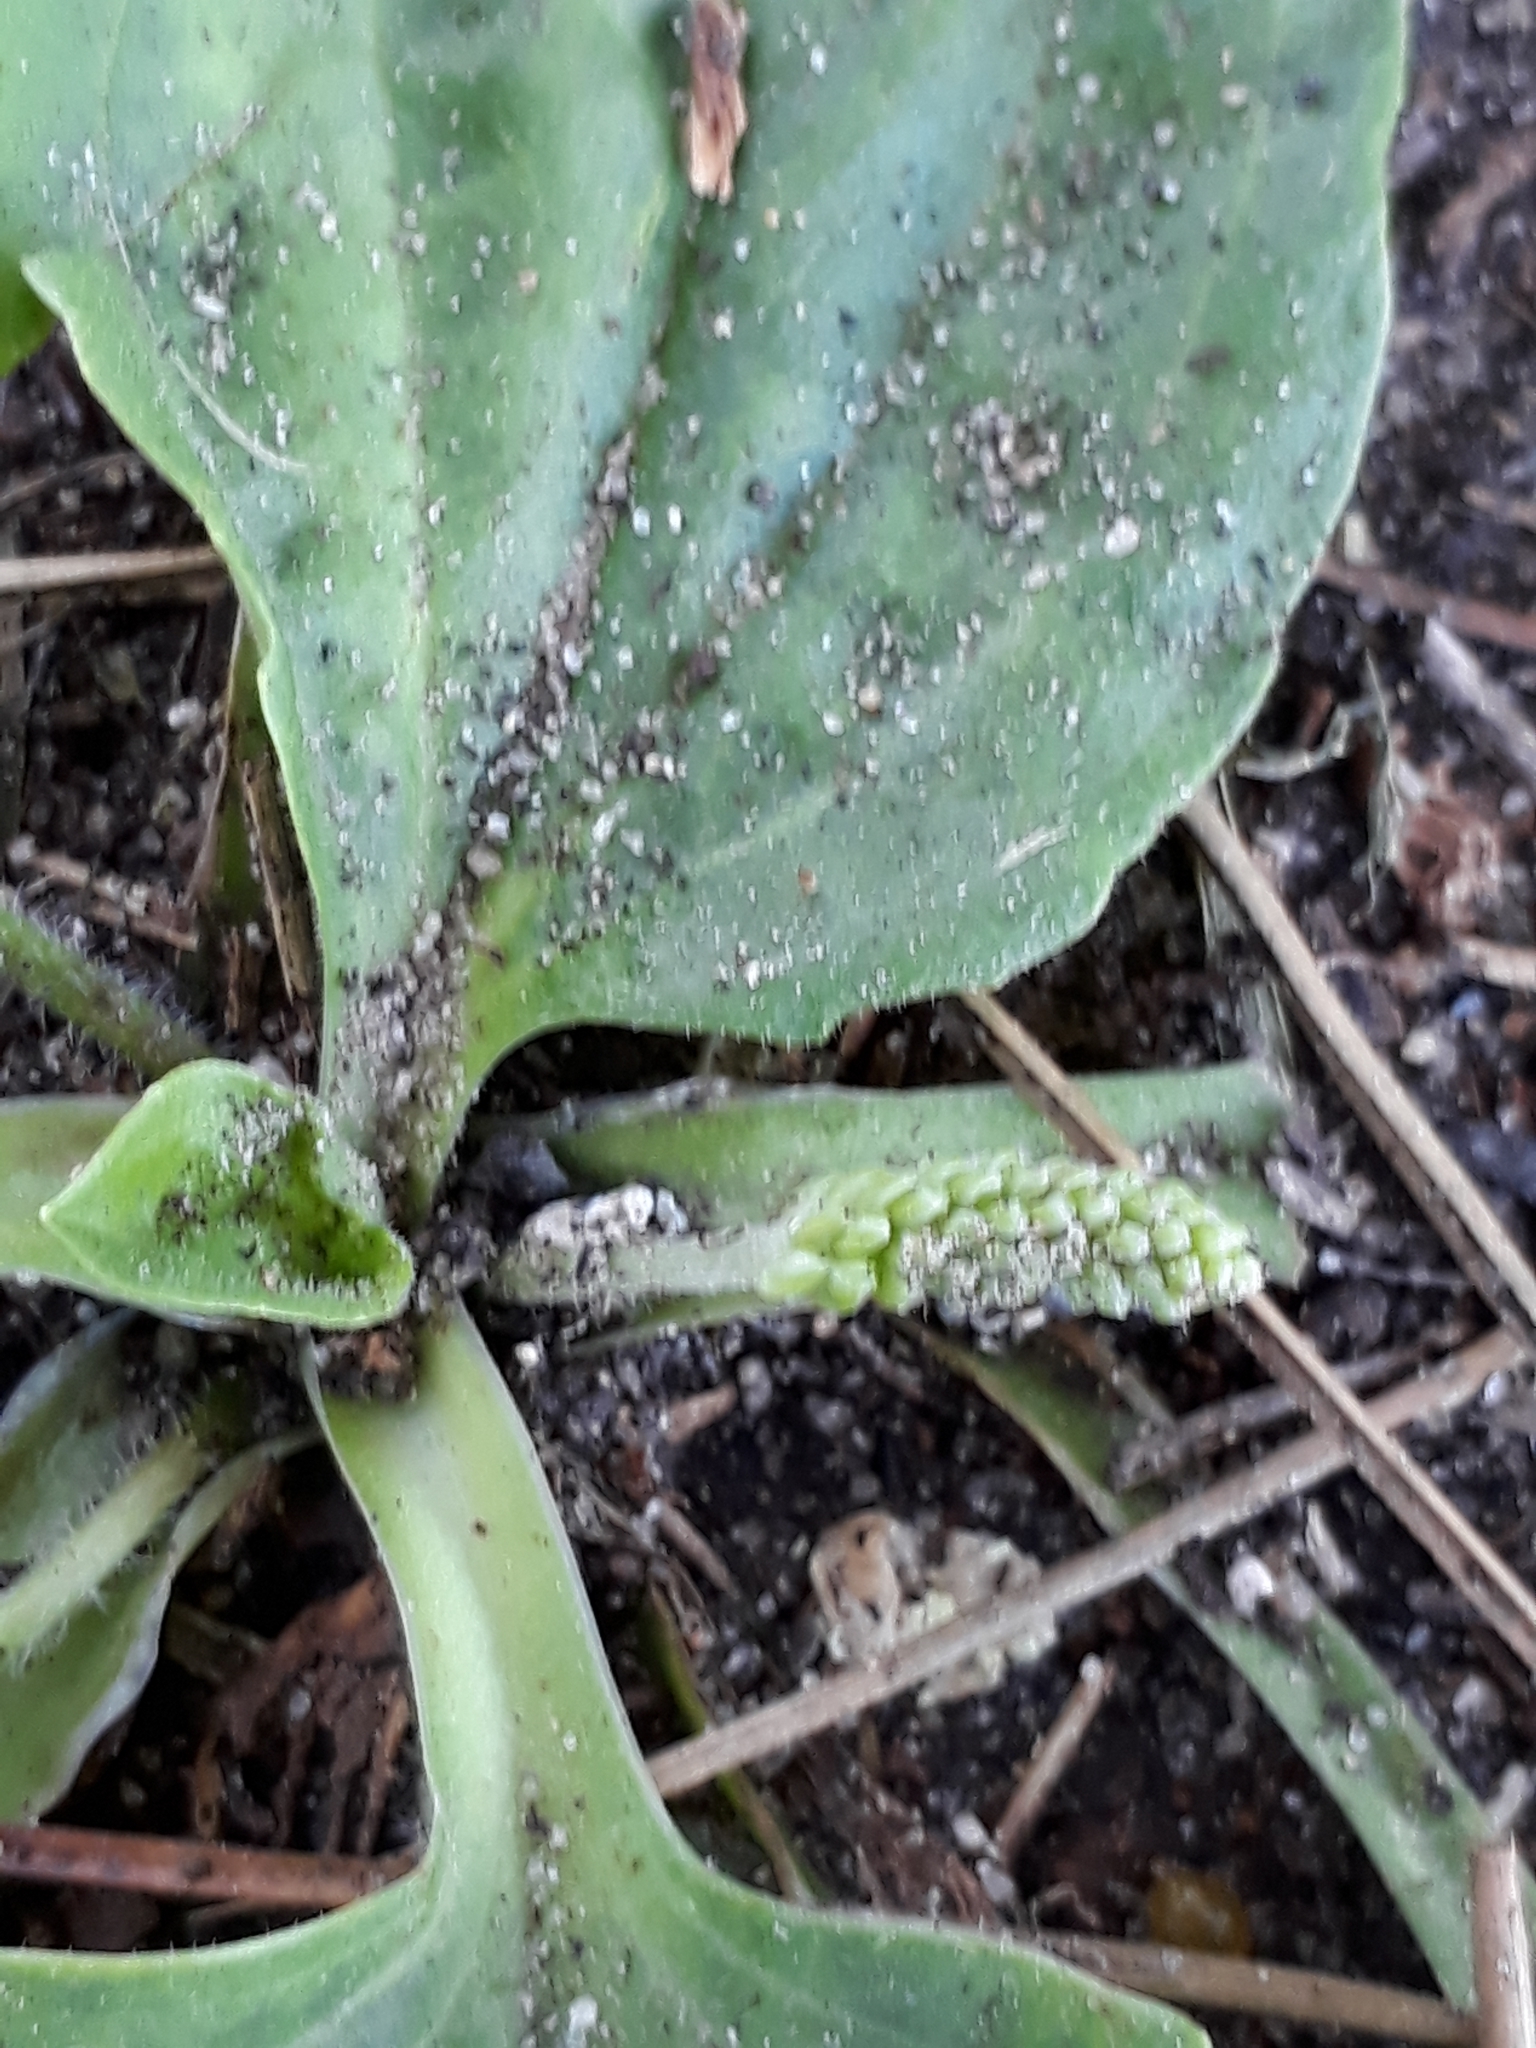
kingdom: Plantae
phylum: Tracheophyta
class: Magnoliopsida
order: Lamiales
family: Plantaginaceae
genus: Plantago
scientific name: Plantago major
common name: Common plantain
